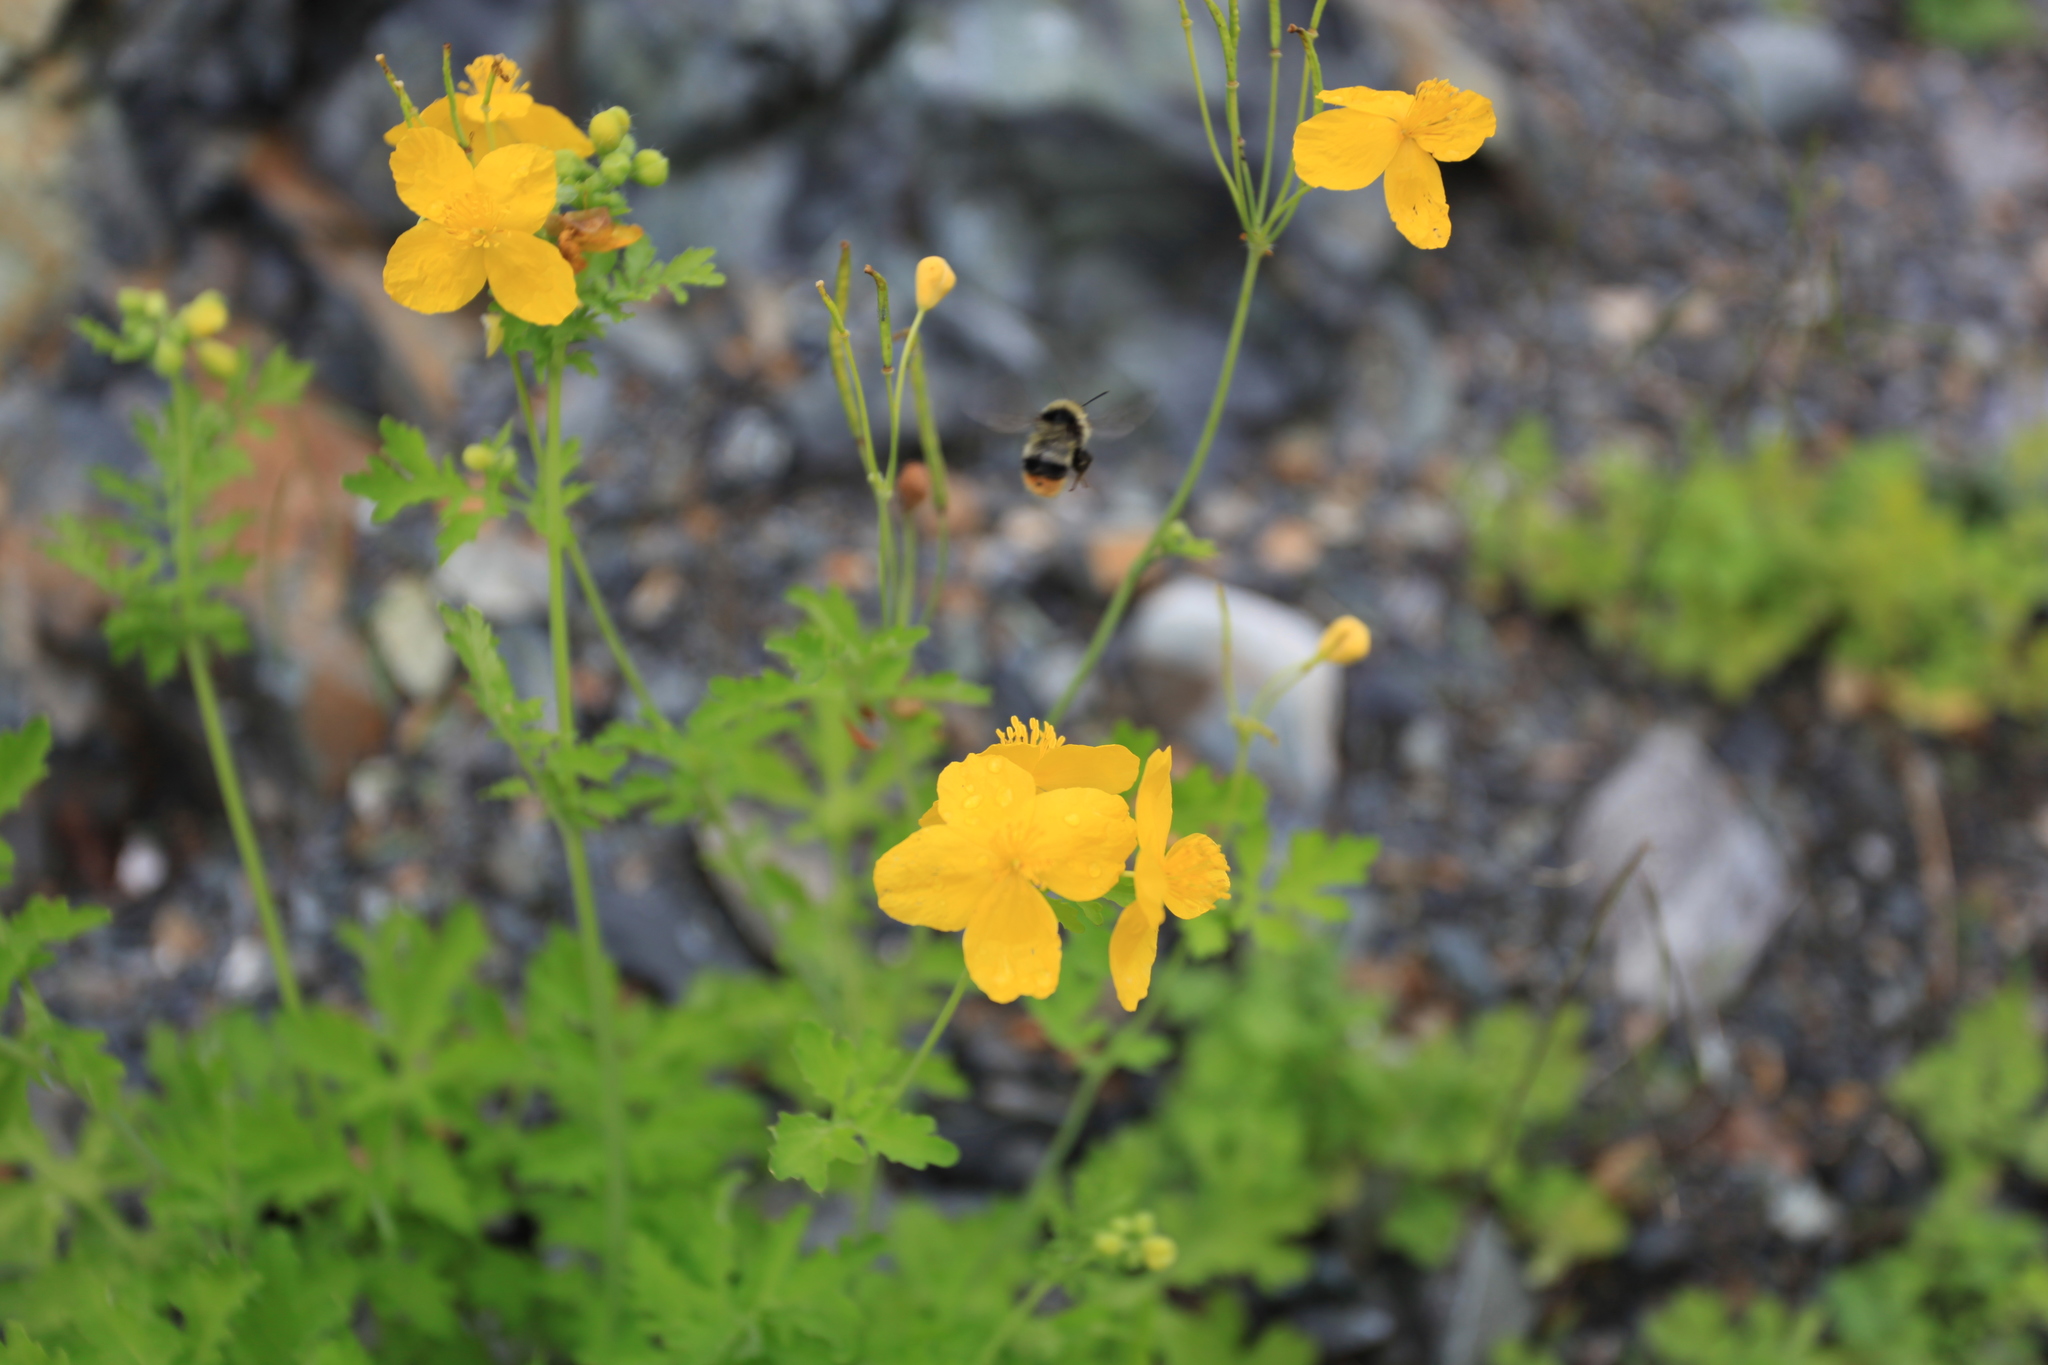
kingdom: Plantae
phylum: Tracheophyta
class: Magnoliopsida
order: Ranunculales
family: Papaveraceae
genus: Chelidonium
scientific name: Chelidonium majus
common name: Greater celandine
